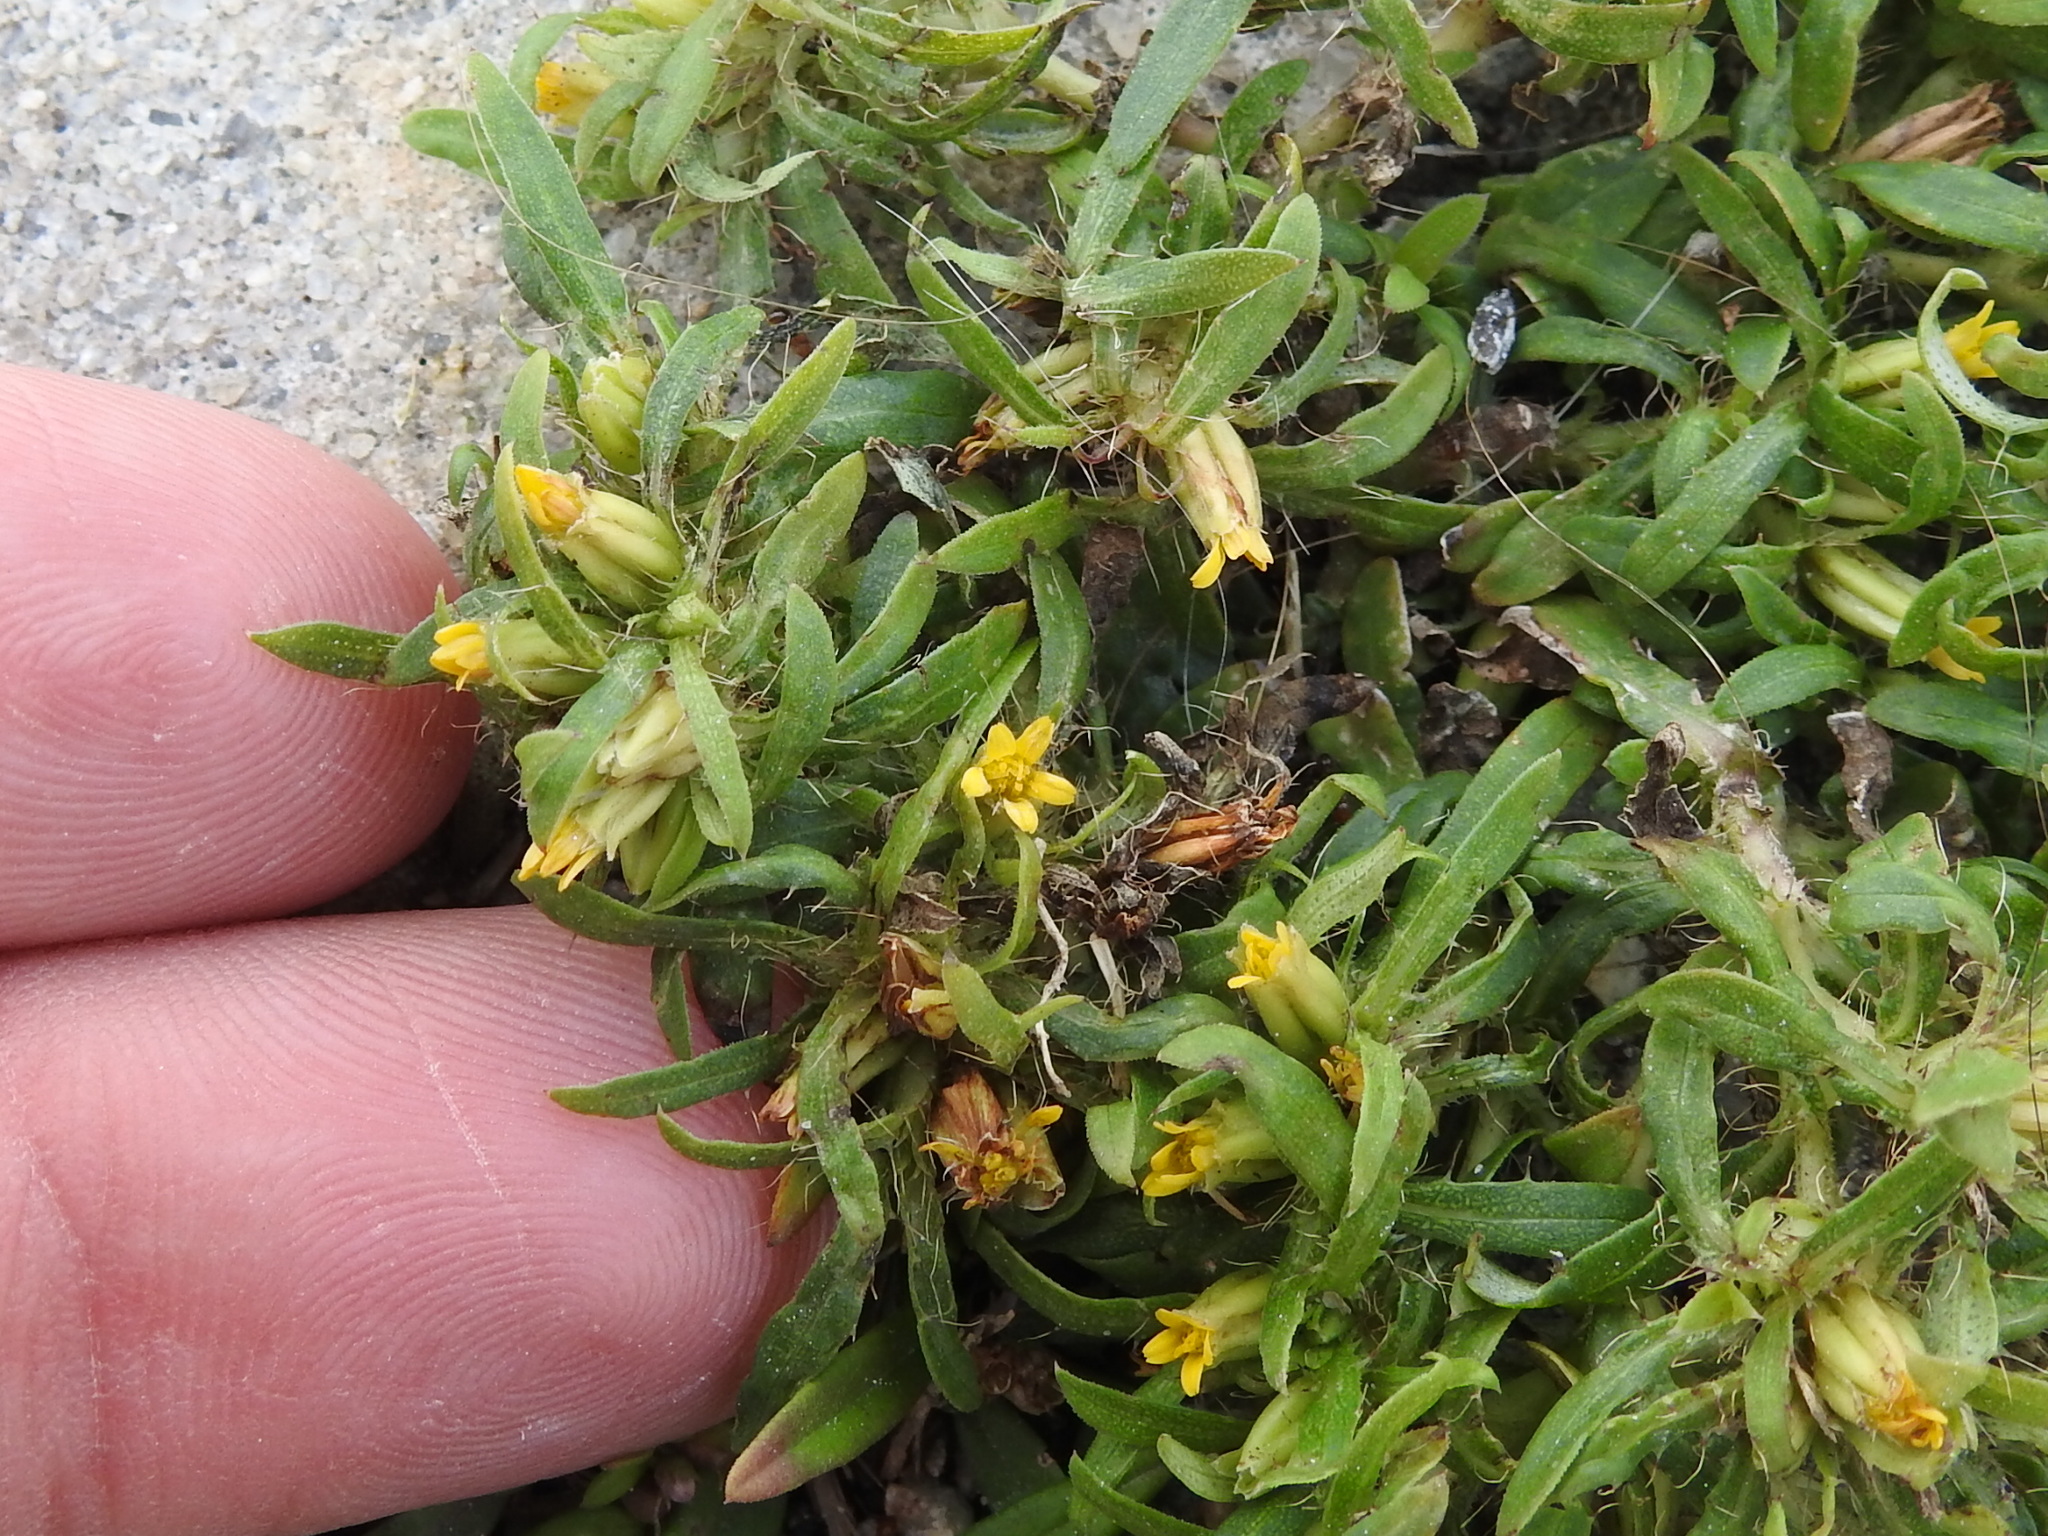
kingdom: Plantae
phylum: Tracheophyta
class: Magnoliopsida
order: Asterales
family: Asteraceae
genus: Pectis
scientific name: Pectis prostrata
